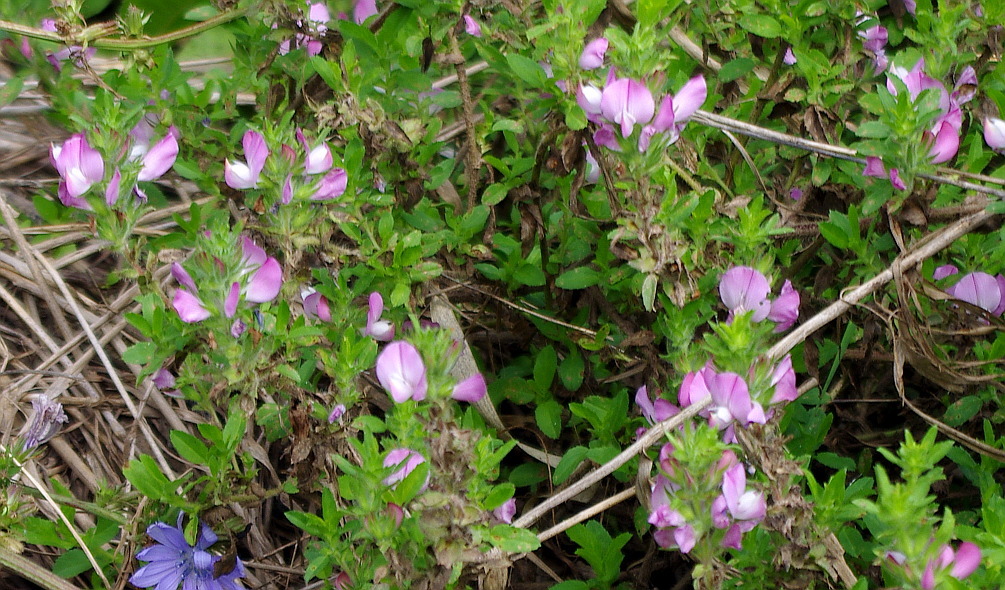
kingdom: Plantae
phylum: Tracheophyta
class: Magnoliopsida
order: Fabales
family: Fabaceae
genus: Ononis
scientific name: Ononis arvensis
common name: Field restharrow
